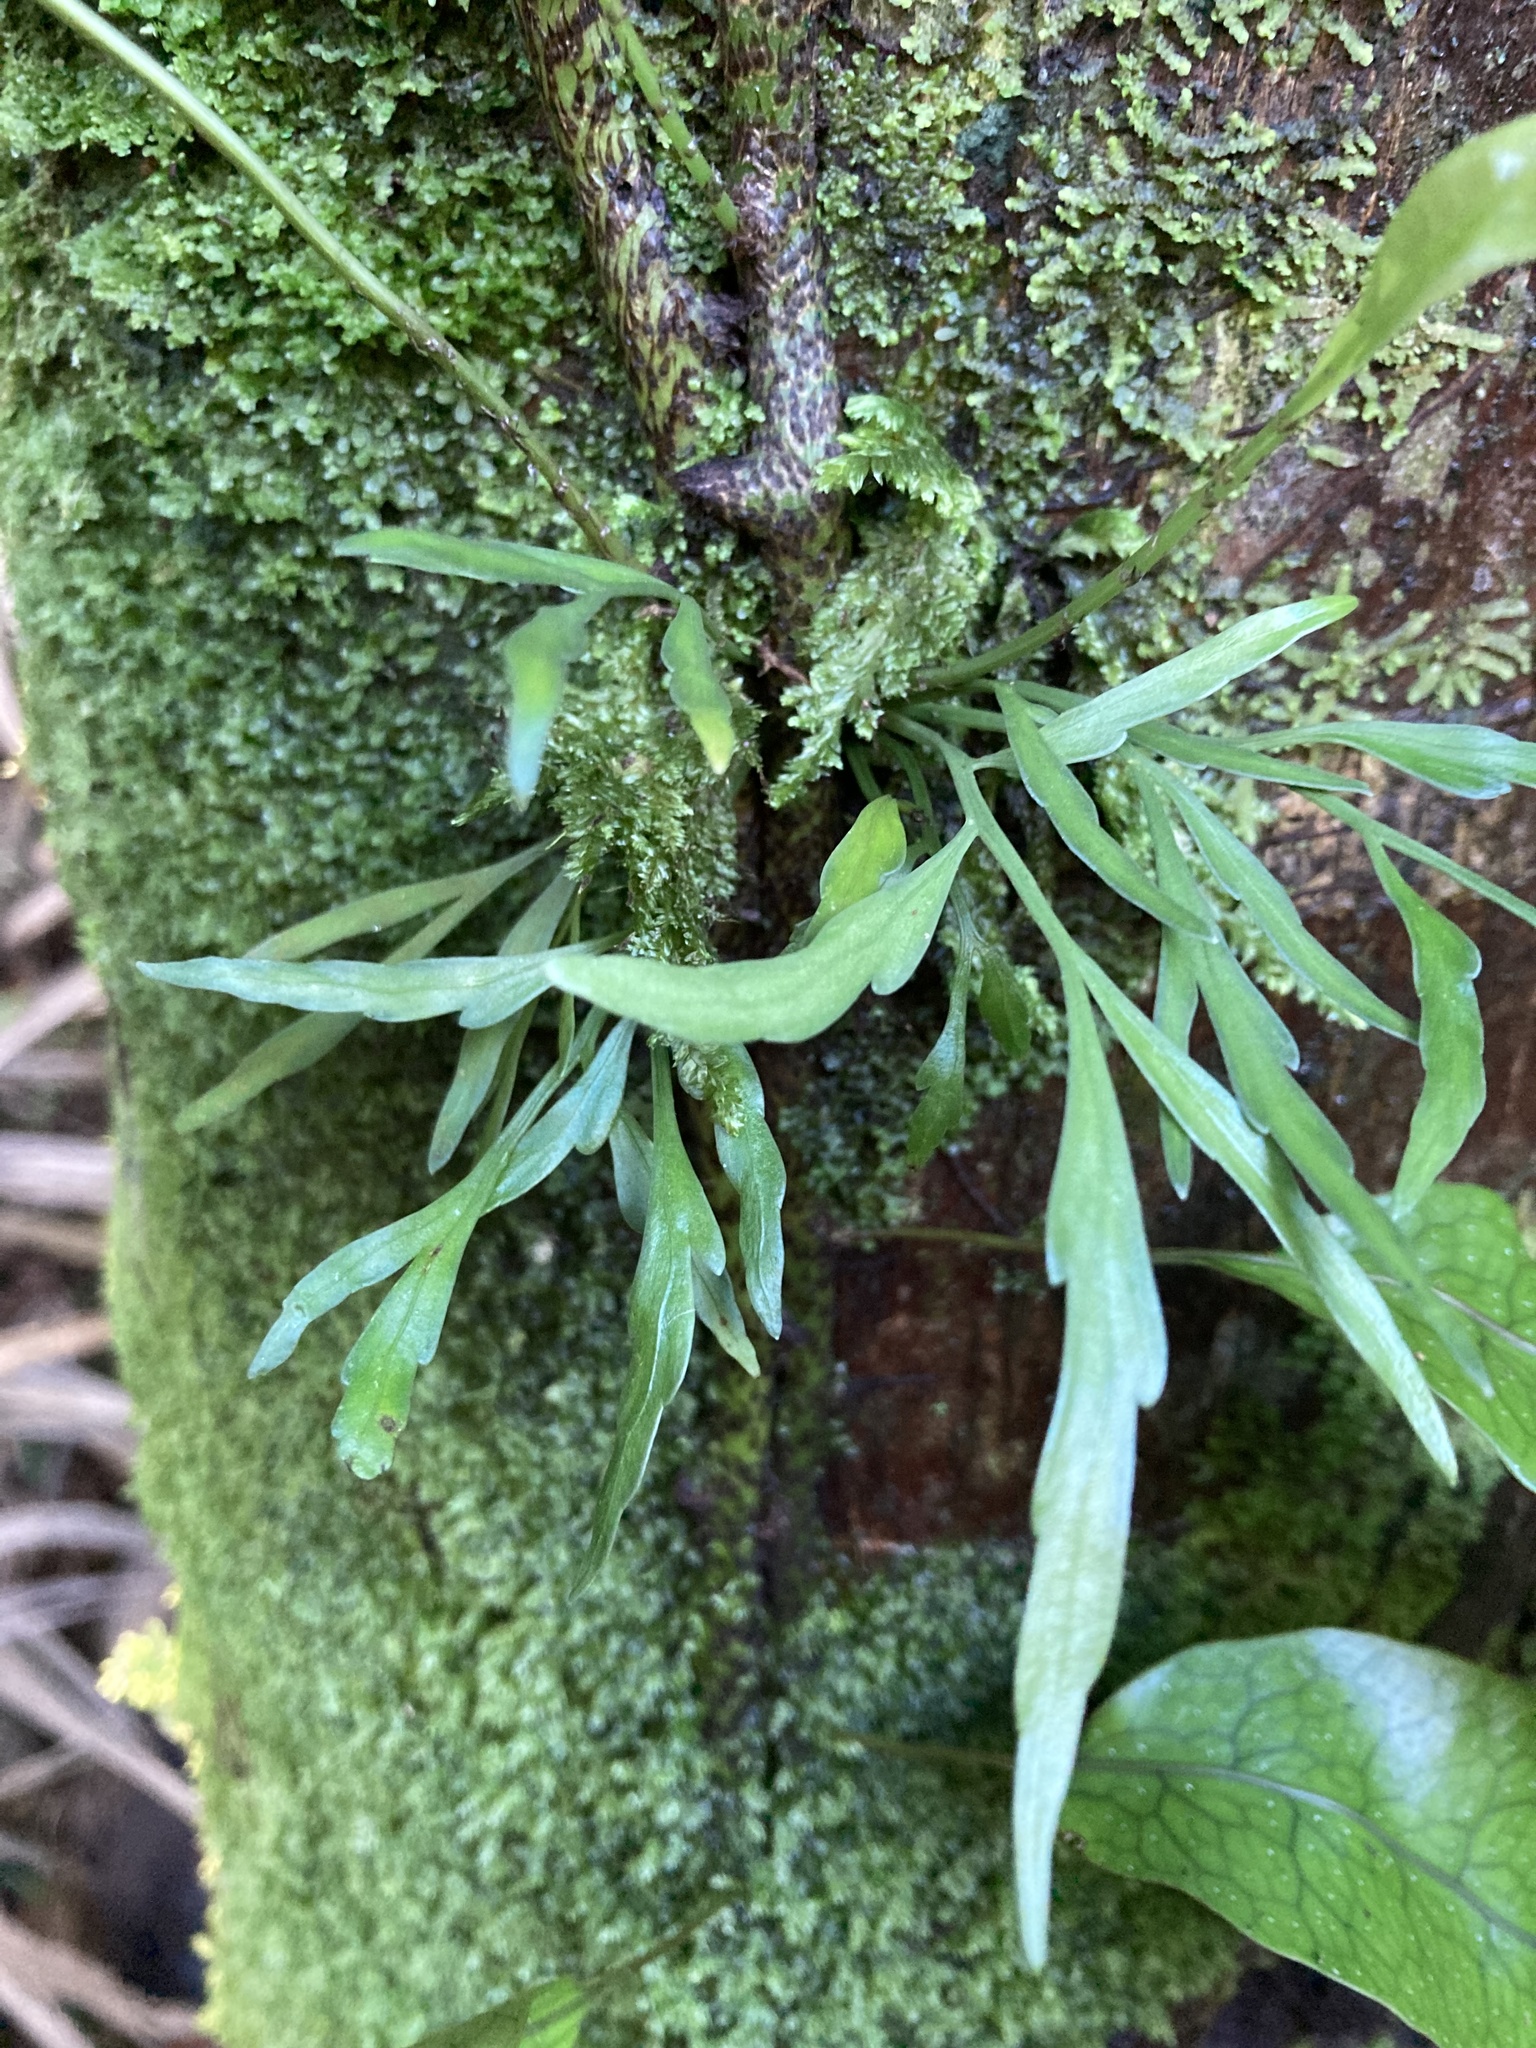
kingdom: Plantae
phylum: Tracheophyta
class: Polypodiopsida
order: Polypodiales
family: Aspleniaceae
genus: Asplenium
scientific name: Asplenium flaccidum
